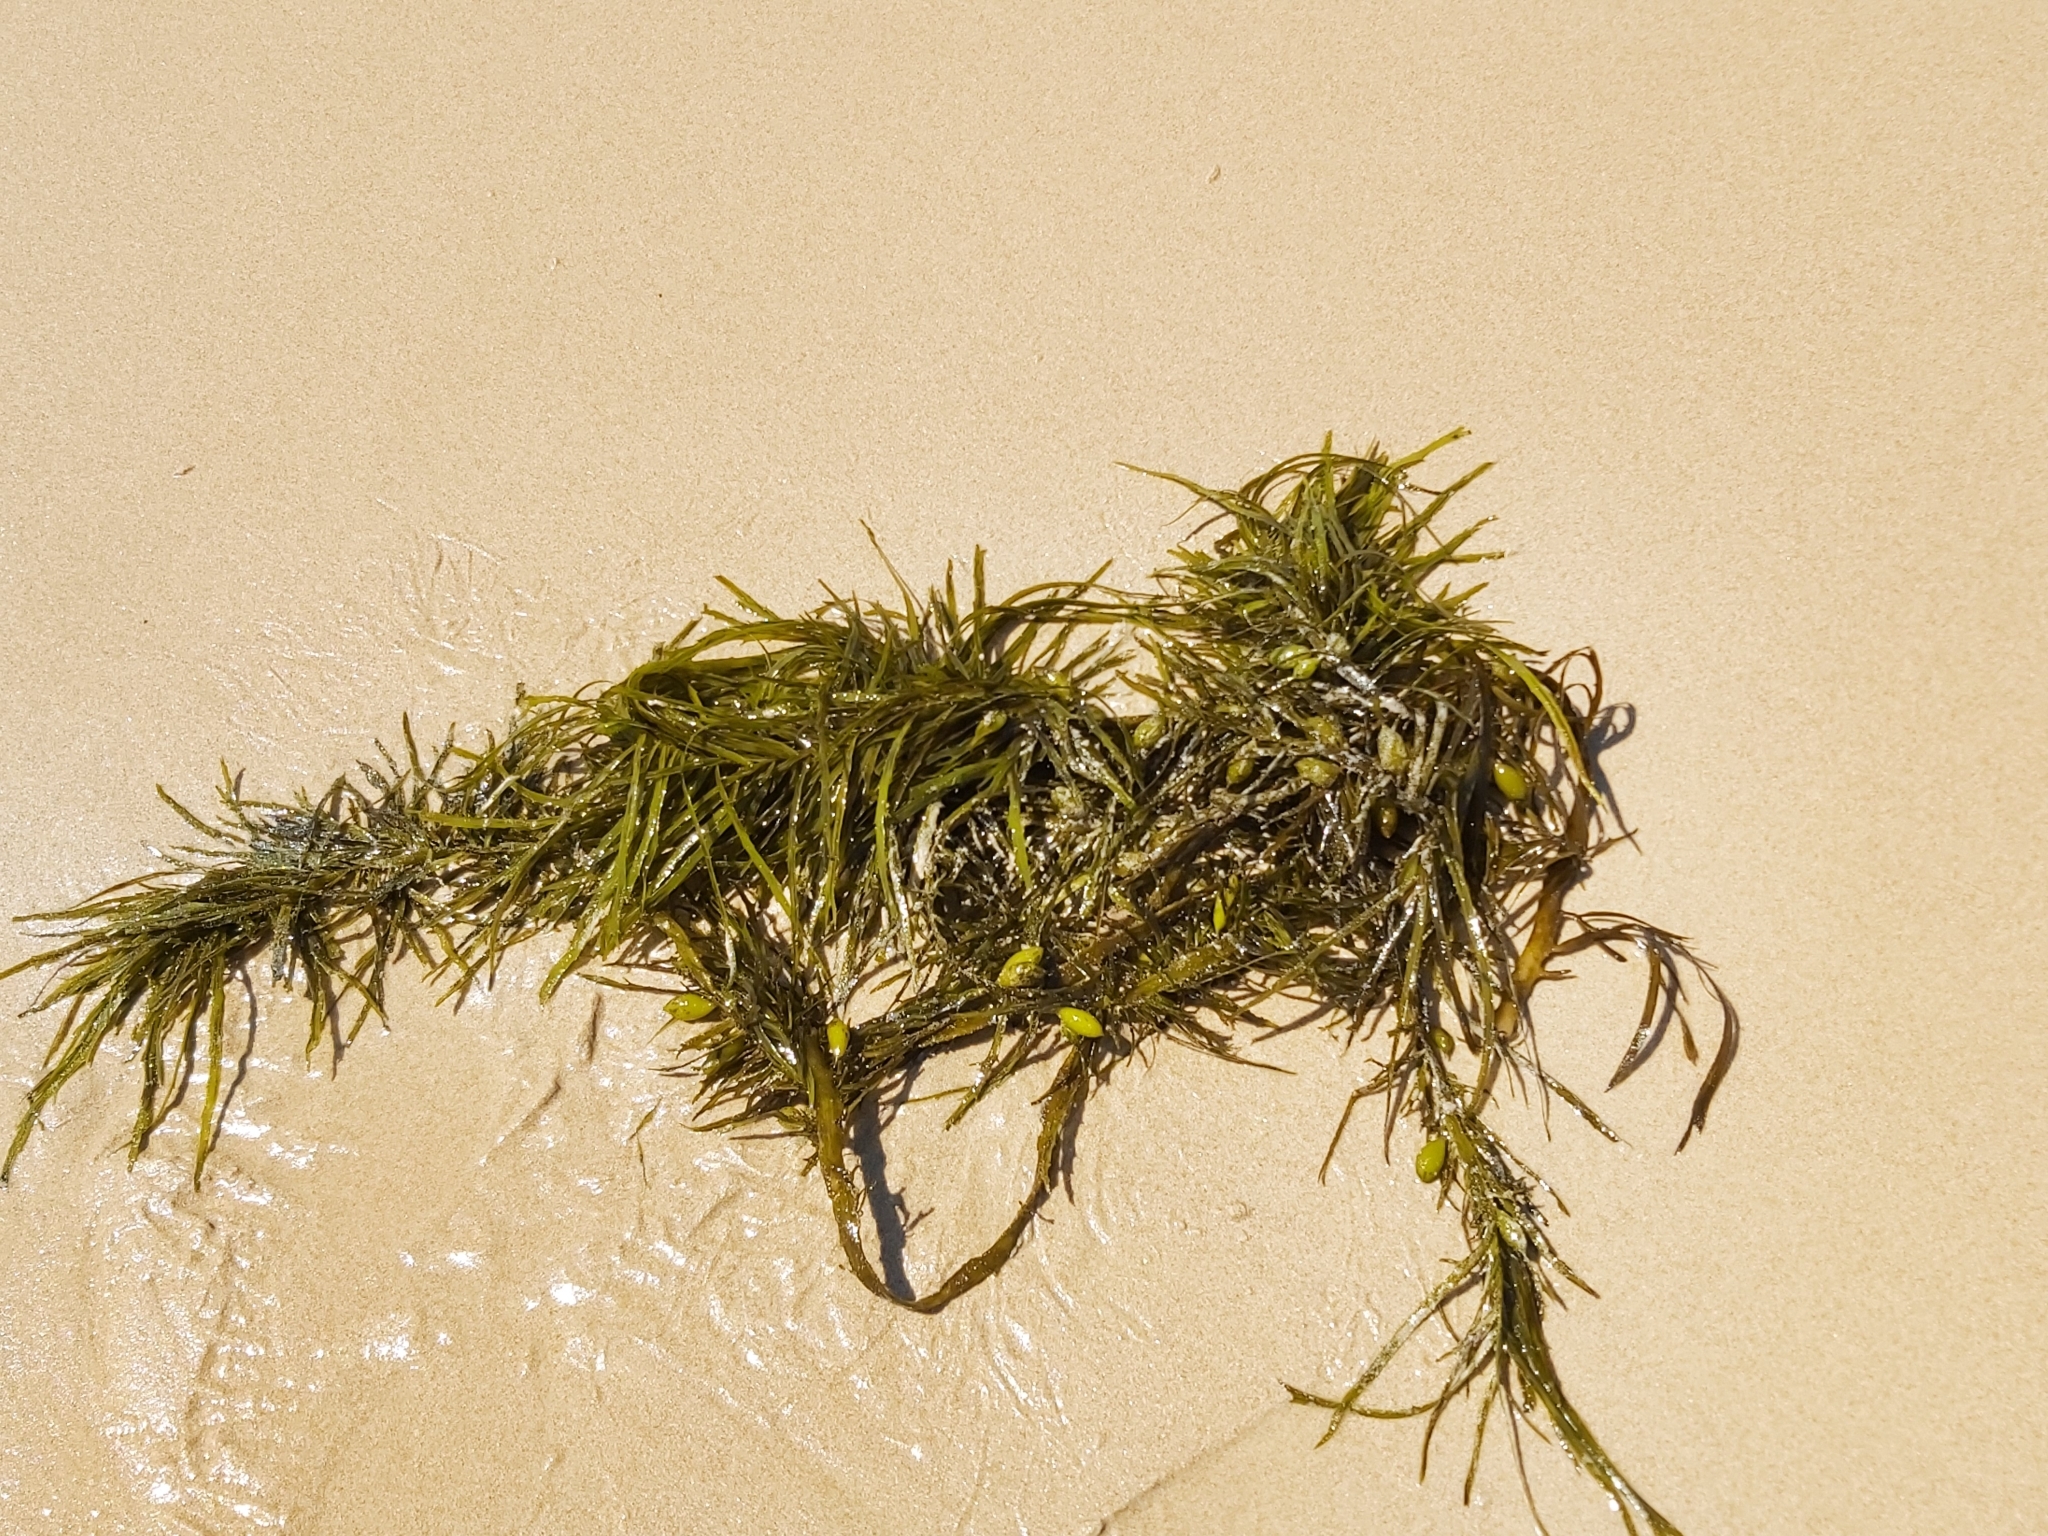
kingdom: Chromista
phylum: Ochrophyta
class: Phaeophyceae
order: Fucales
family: Seirococcaceae
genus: Phyllospora
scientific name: Phyllospora
